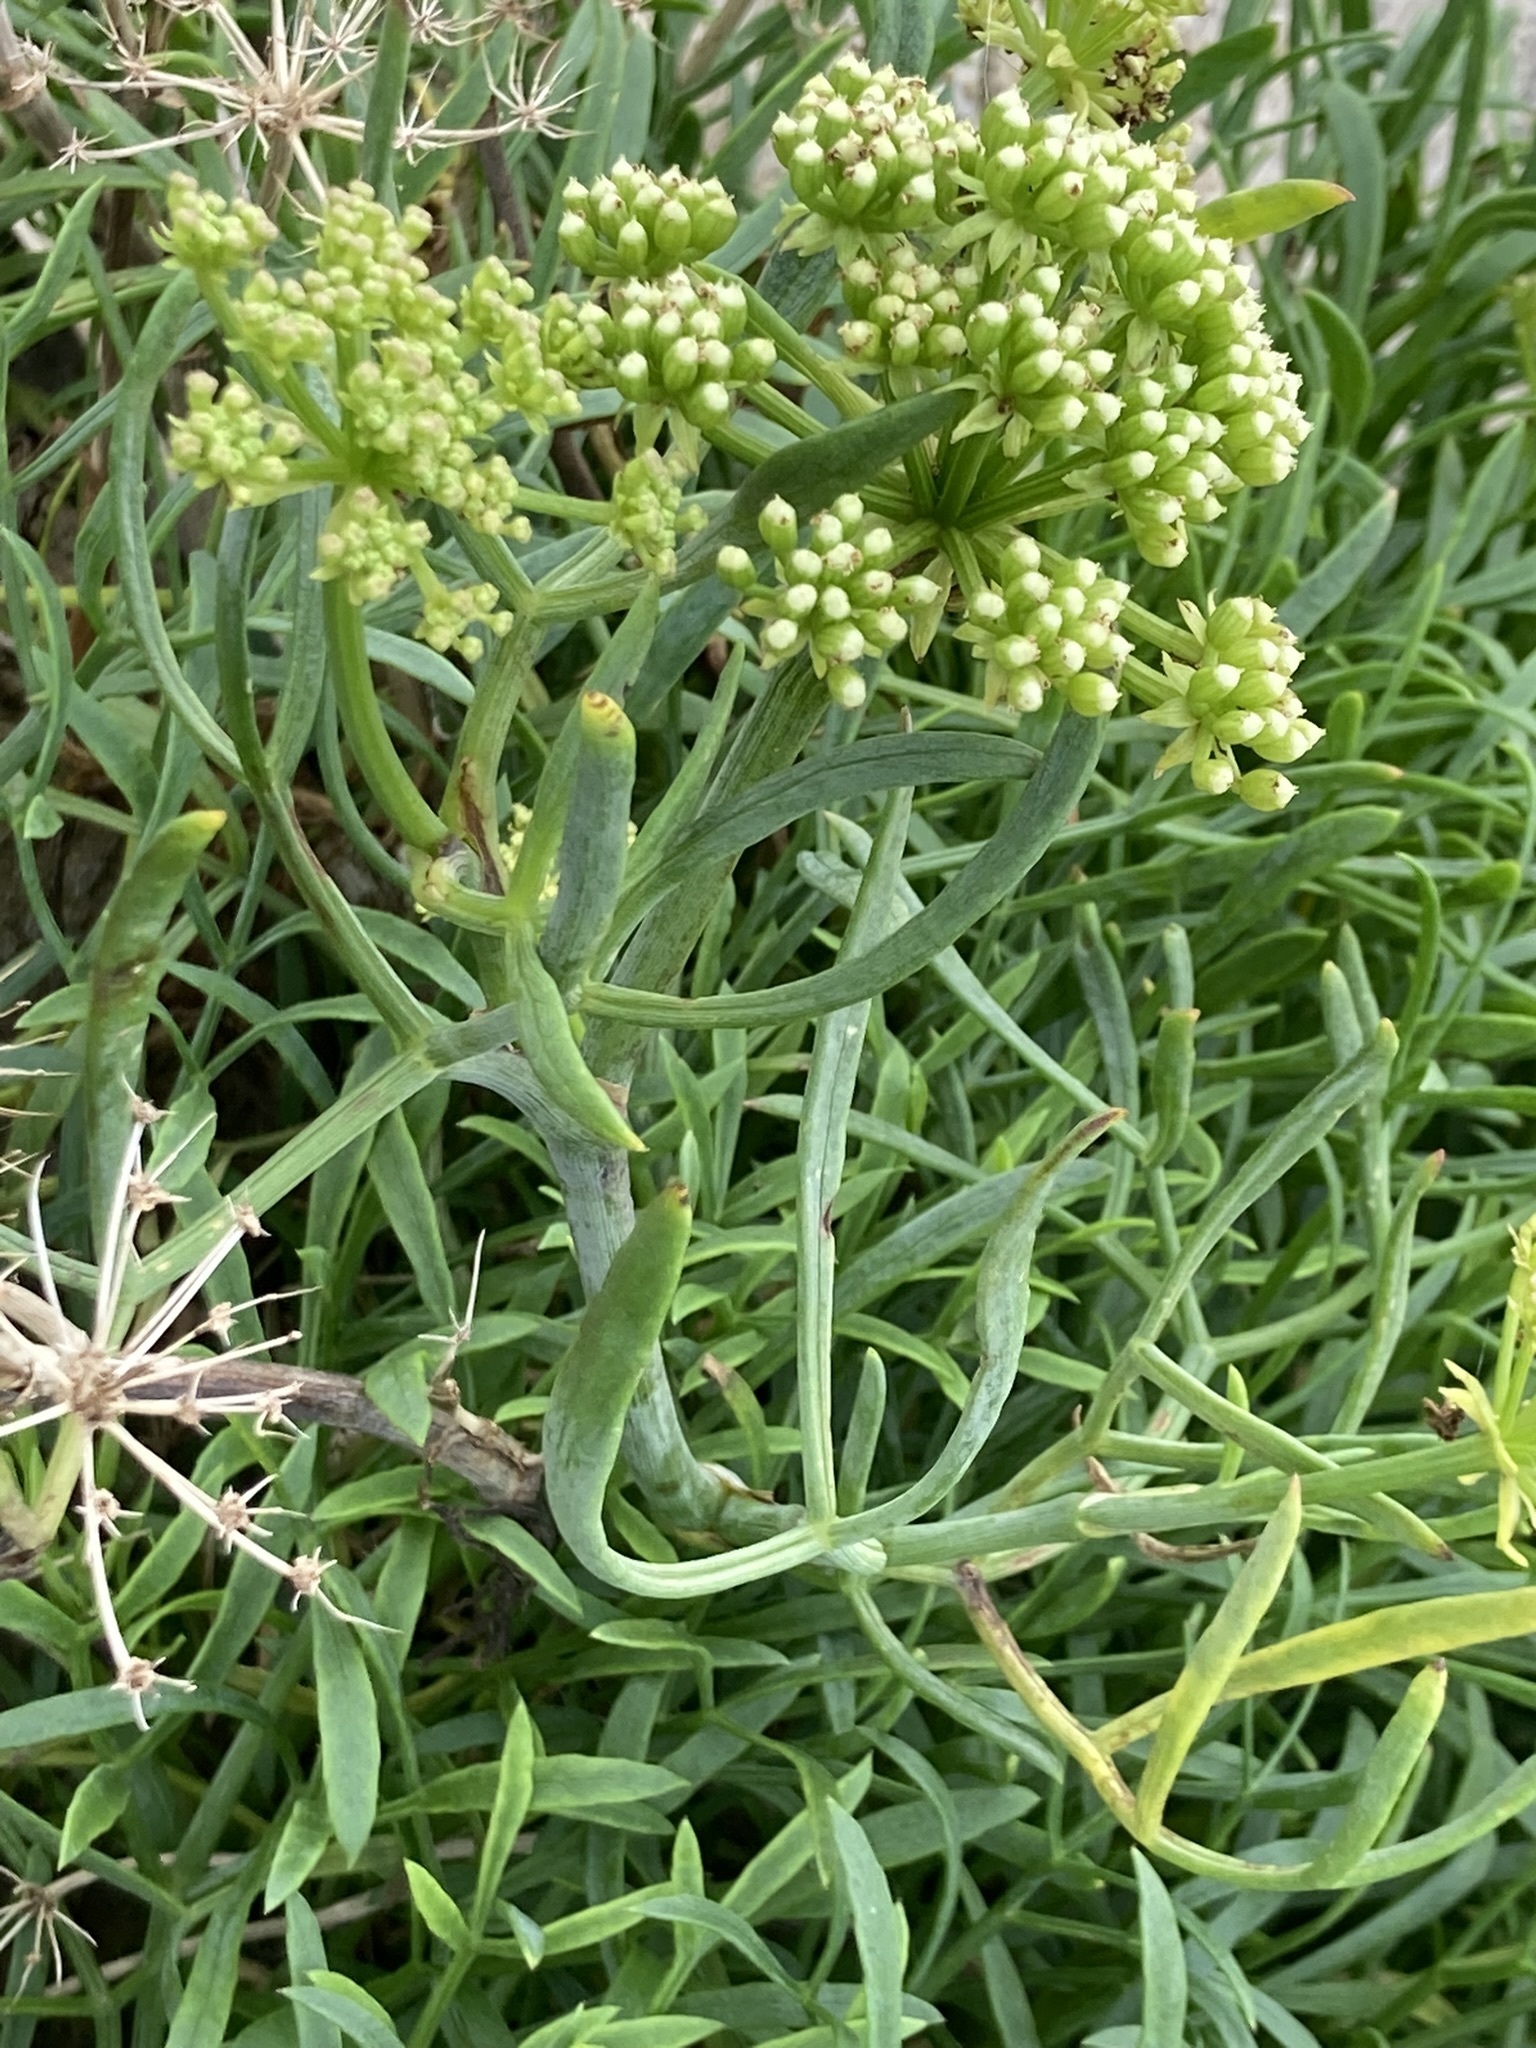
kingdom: Plantae
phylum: Tracheophyta
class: Magnoliopsida
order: Apiales
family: Apiaceae
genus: Crithmum
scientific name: Crithmum maritimum
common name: Rock samphire
